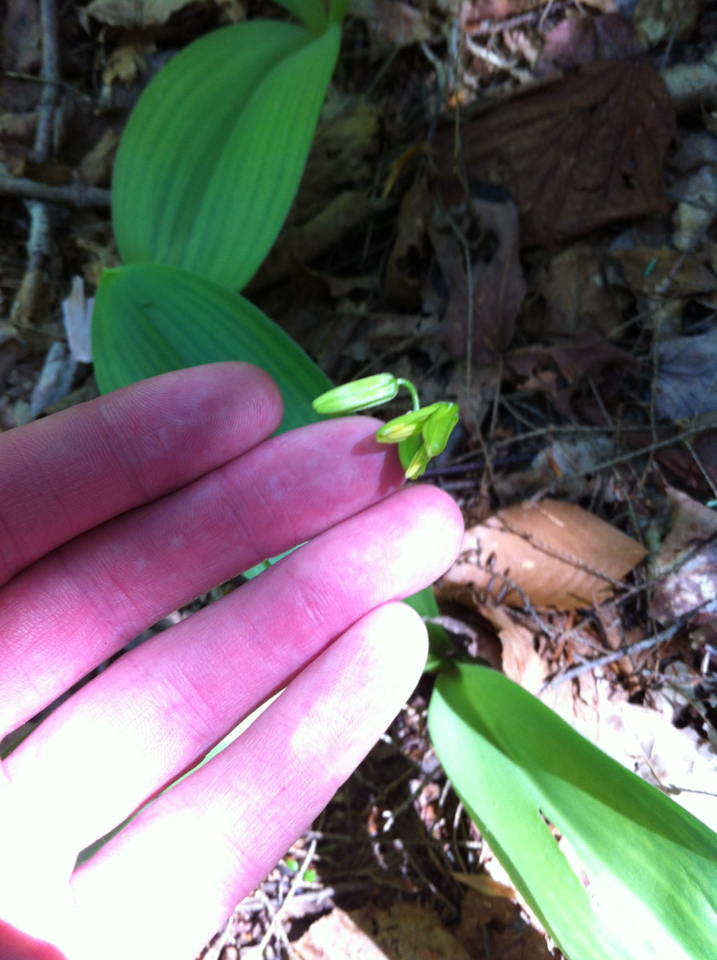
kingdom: Plantae
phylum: Tracheophyta
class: Liliopsida
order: Liliales
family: Liliaceae
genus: Clintonia
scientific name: Clintonia borealis
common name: Yellow clintonia
